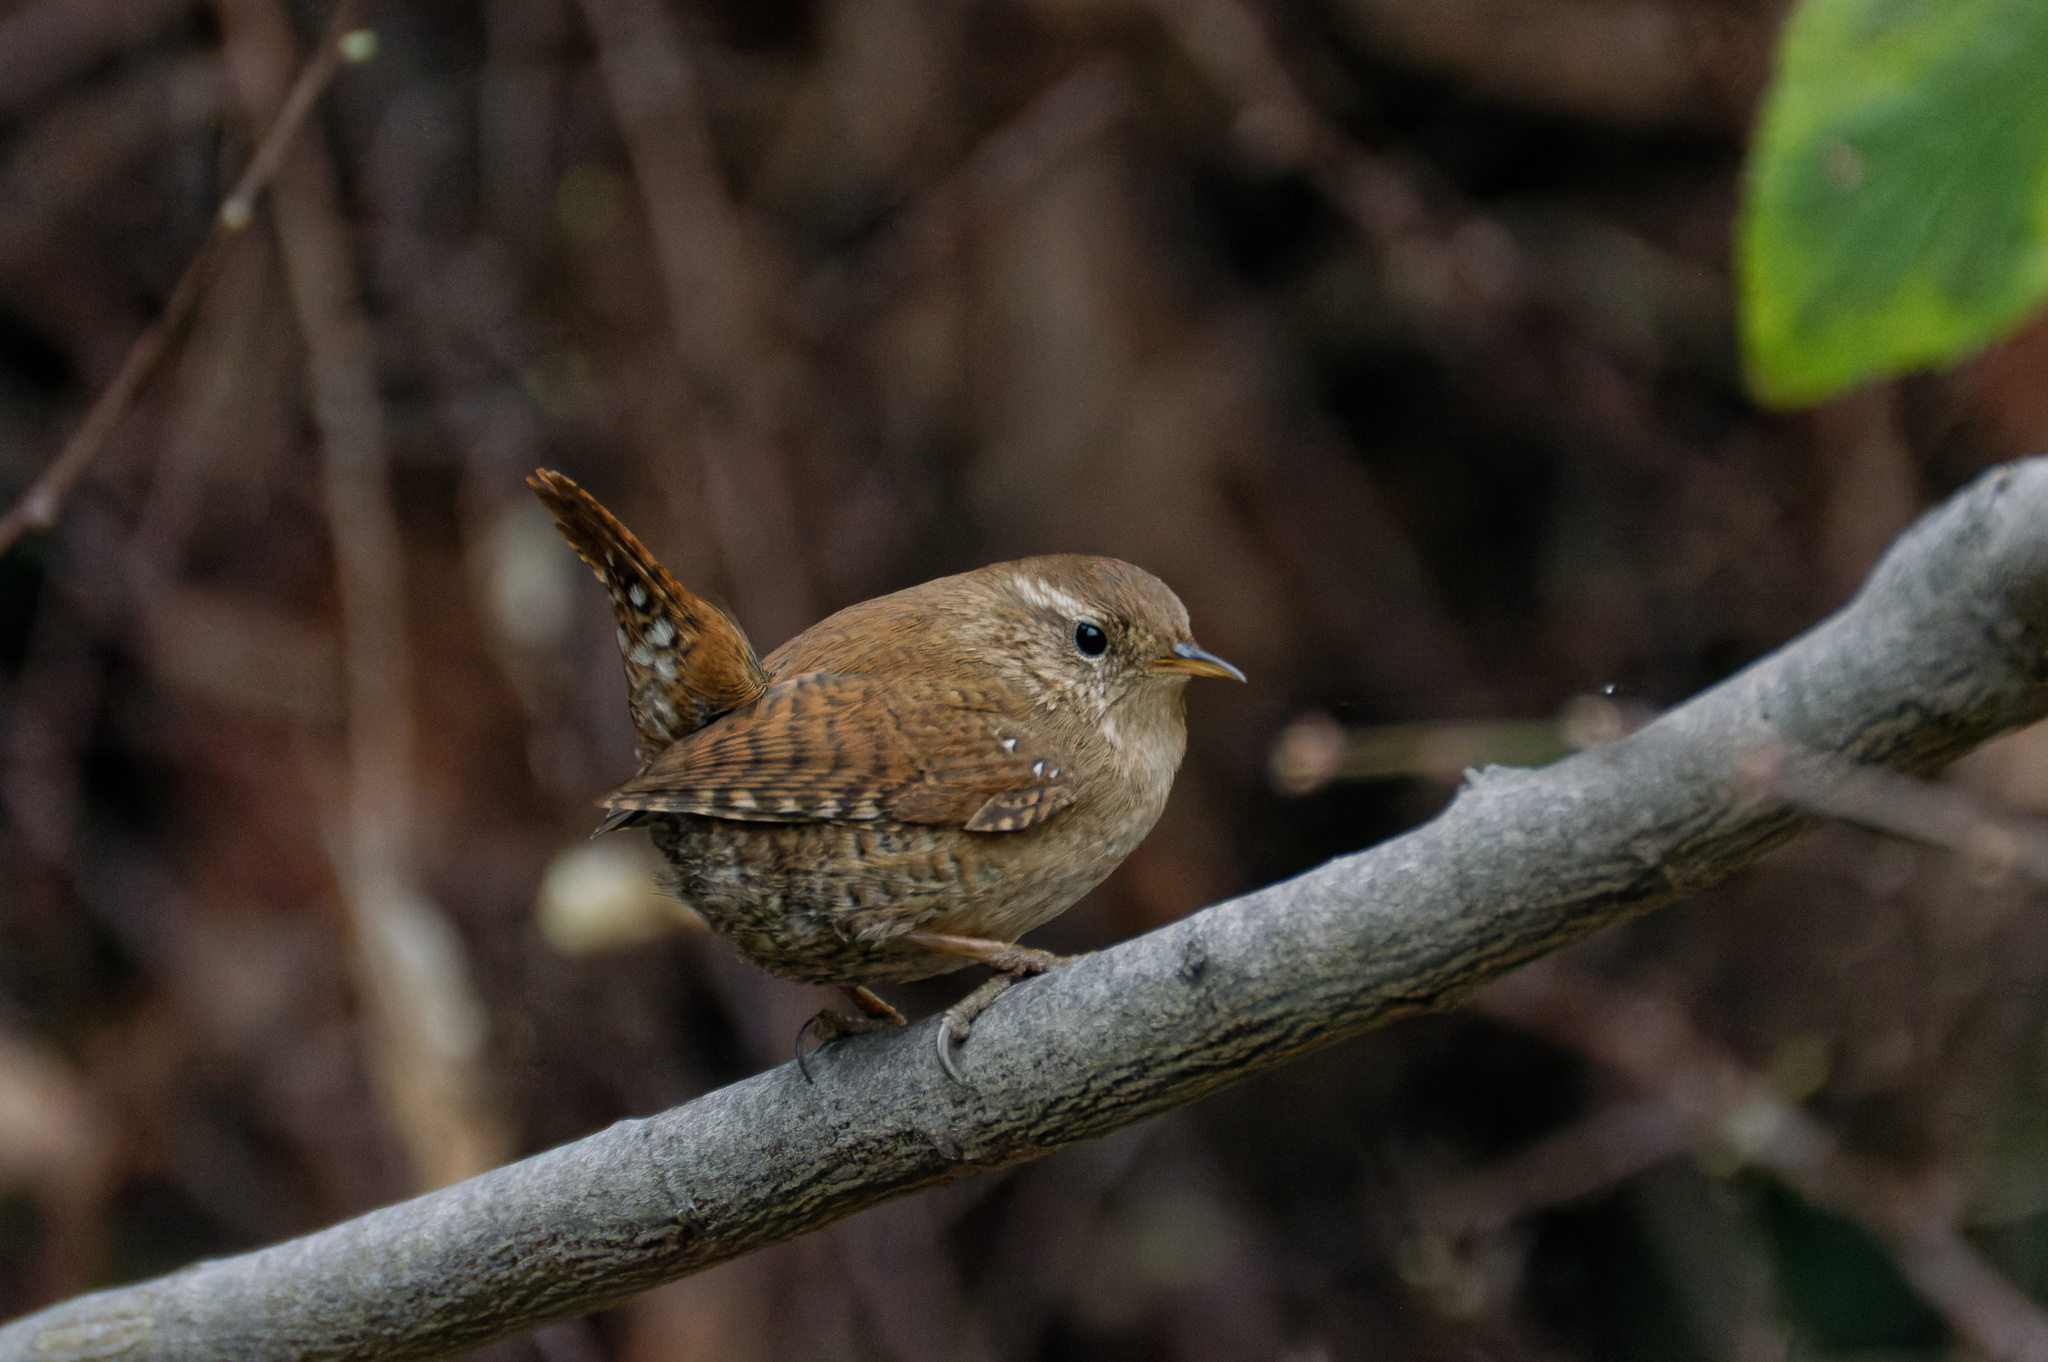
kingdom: Animalia
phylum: Chordata
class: Aves
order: Passeriformes
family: Troglodytidae
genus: Troglodytes
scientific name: Troglodytes troglodytes
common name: Eurasian wren
